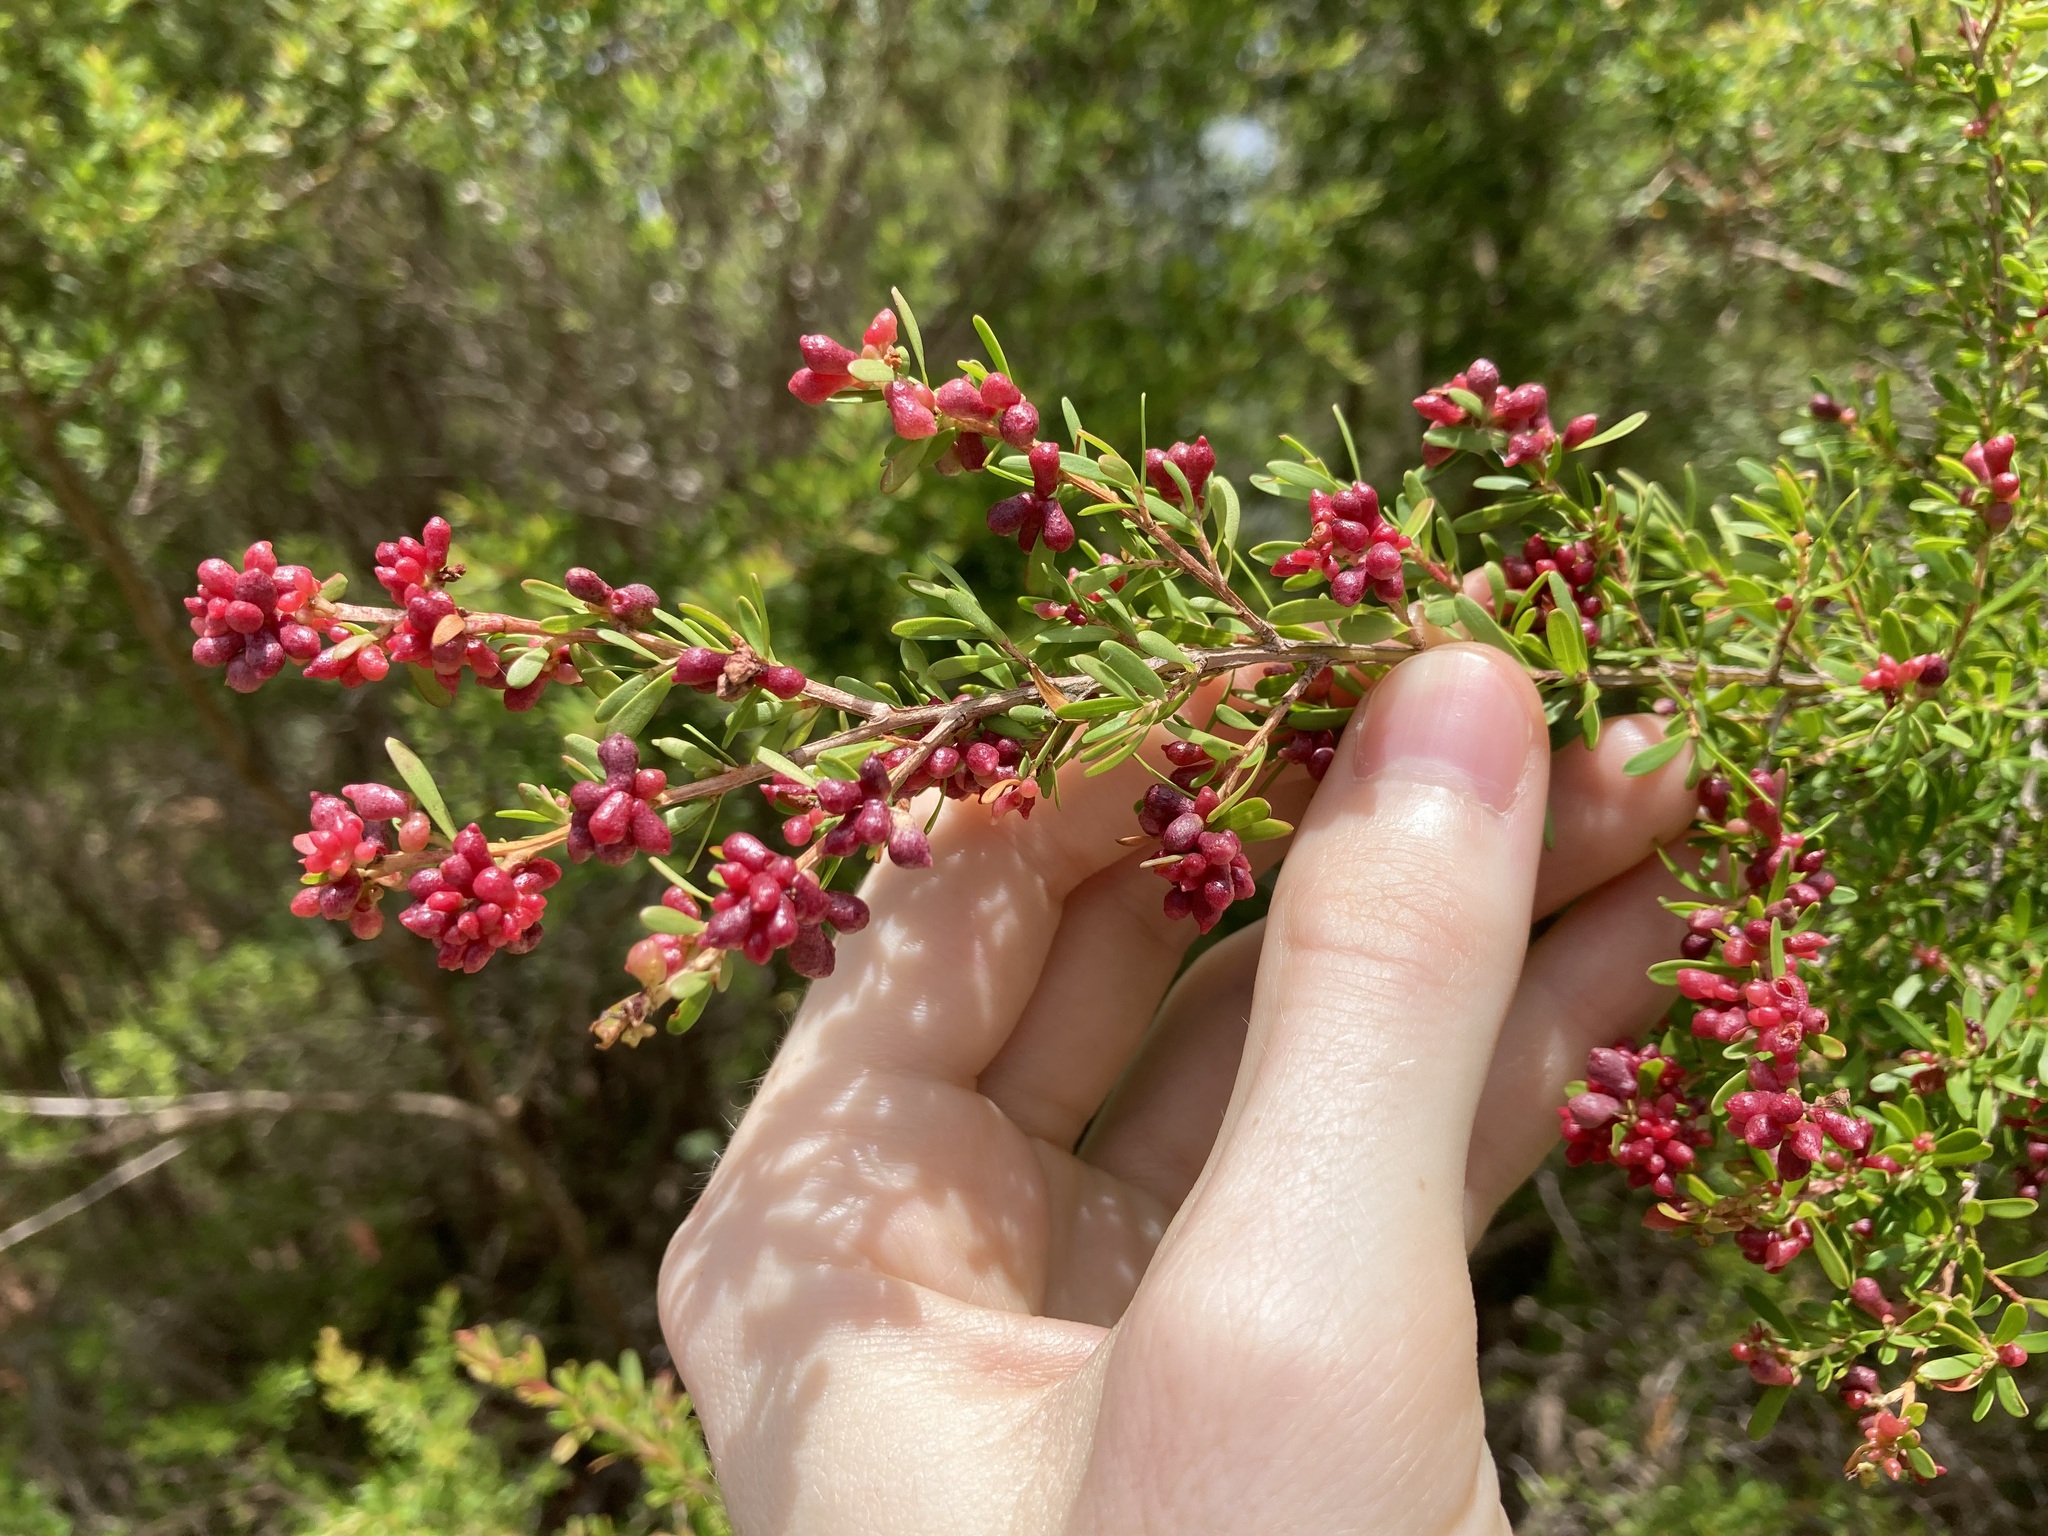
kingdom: Animalia
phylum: Arthropoda
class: Insecta
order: Hemiptera
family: Asterolecaniidae
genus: Eremococcus
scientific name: Eremococcus
